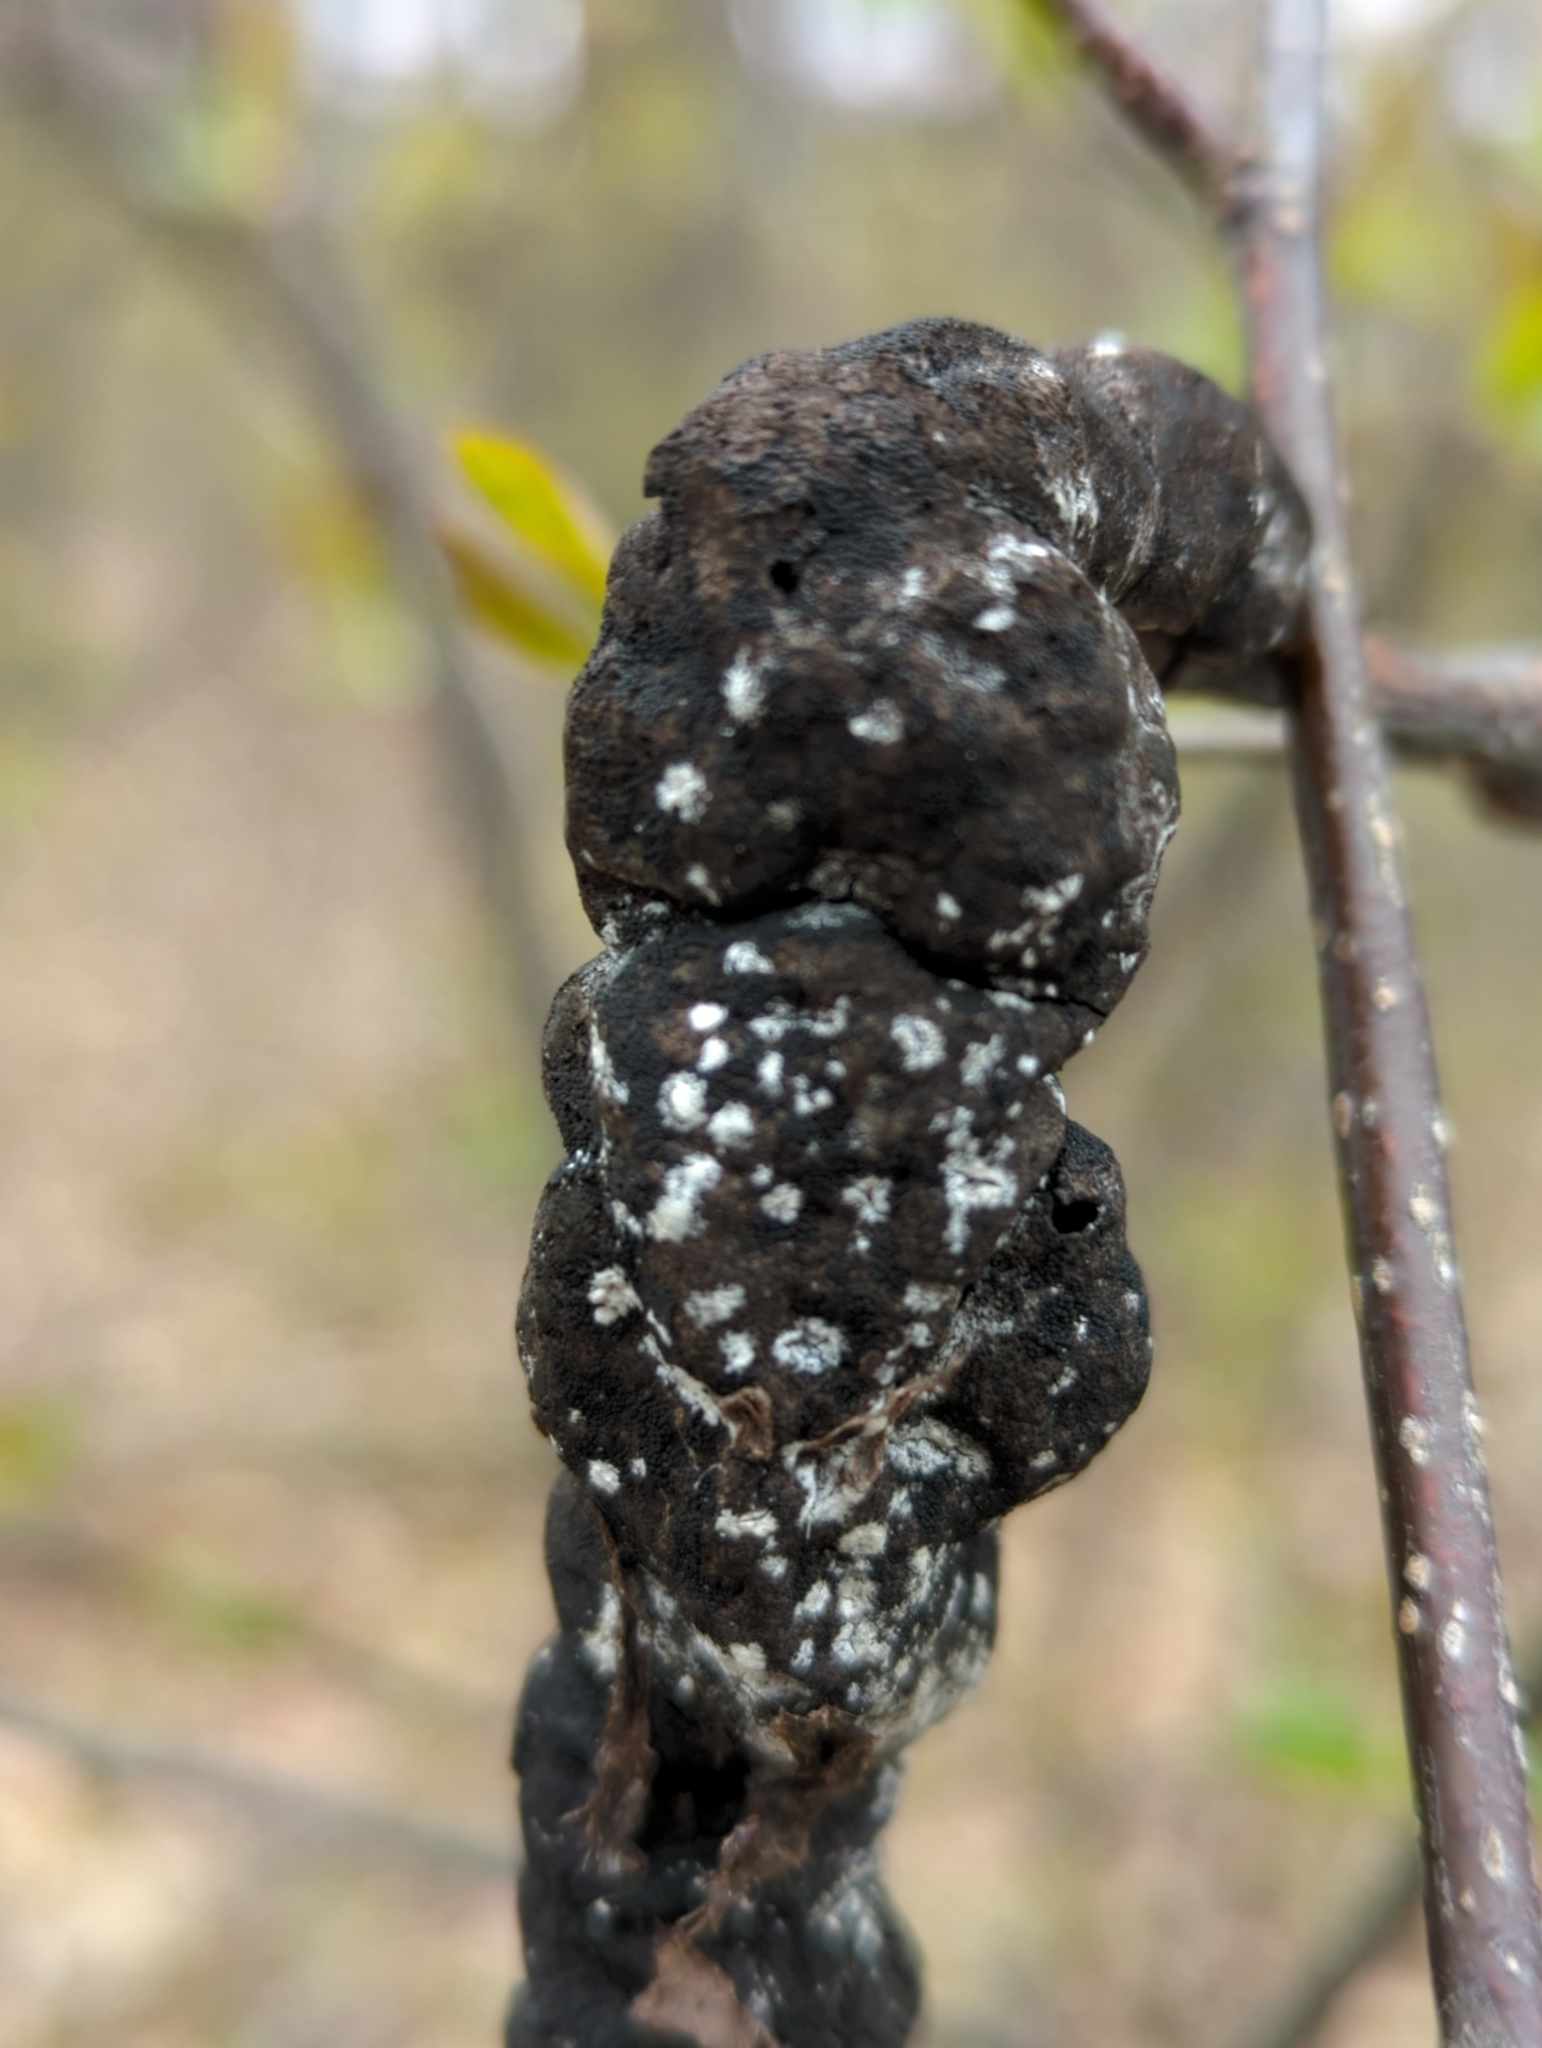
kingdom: Fungi
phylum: Ascomycota
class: Dothideomycetes
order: Venturiales
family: Venturiaceae
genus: Apiosporina
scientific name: Apiosporina morbosa
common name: Black knot
